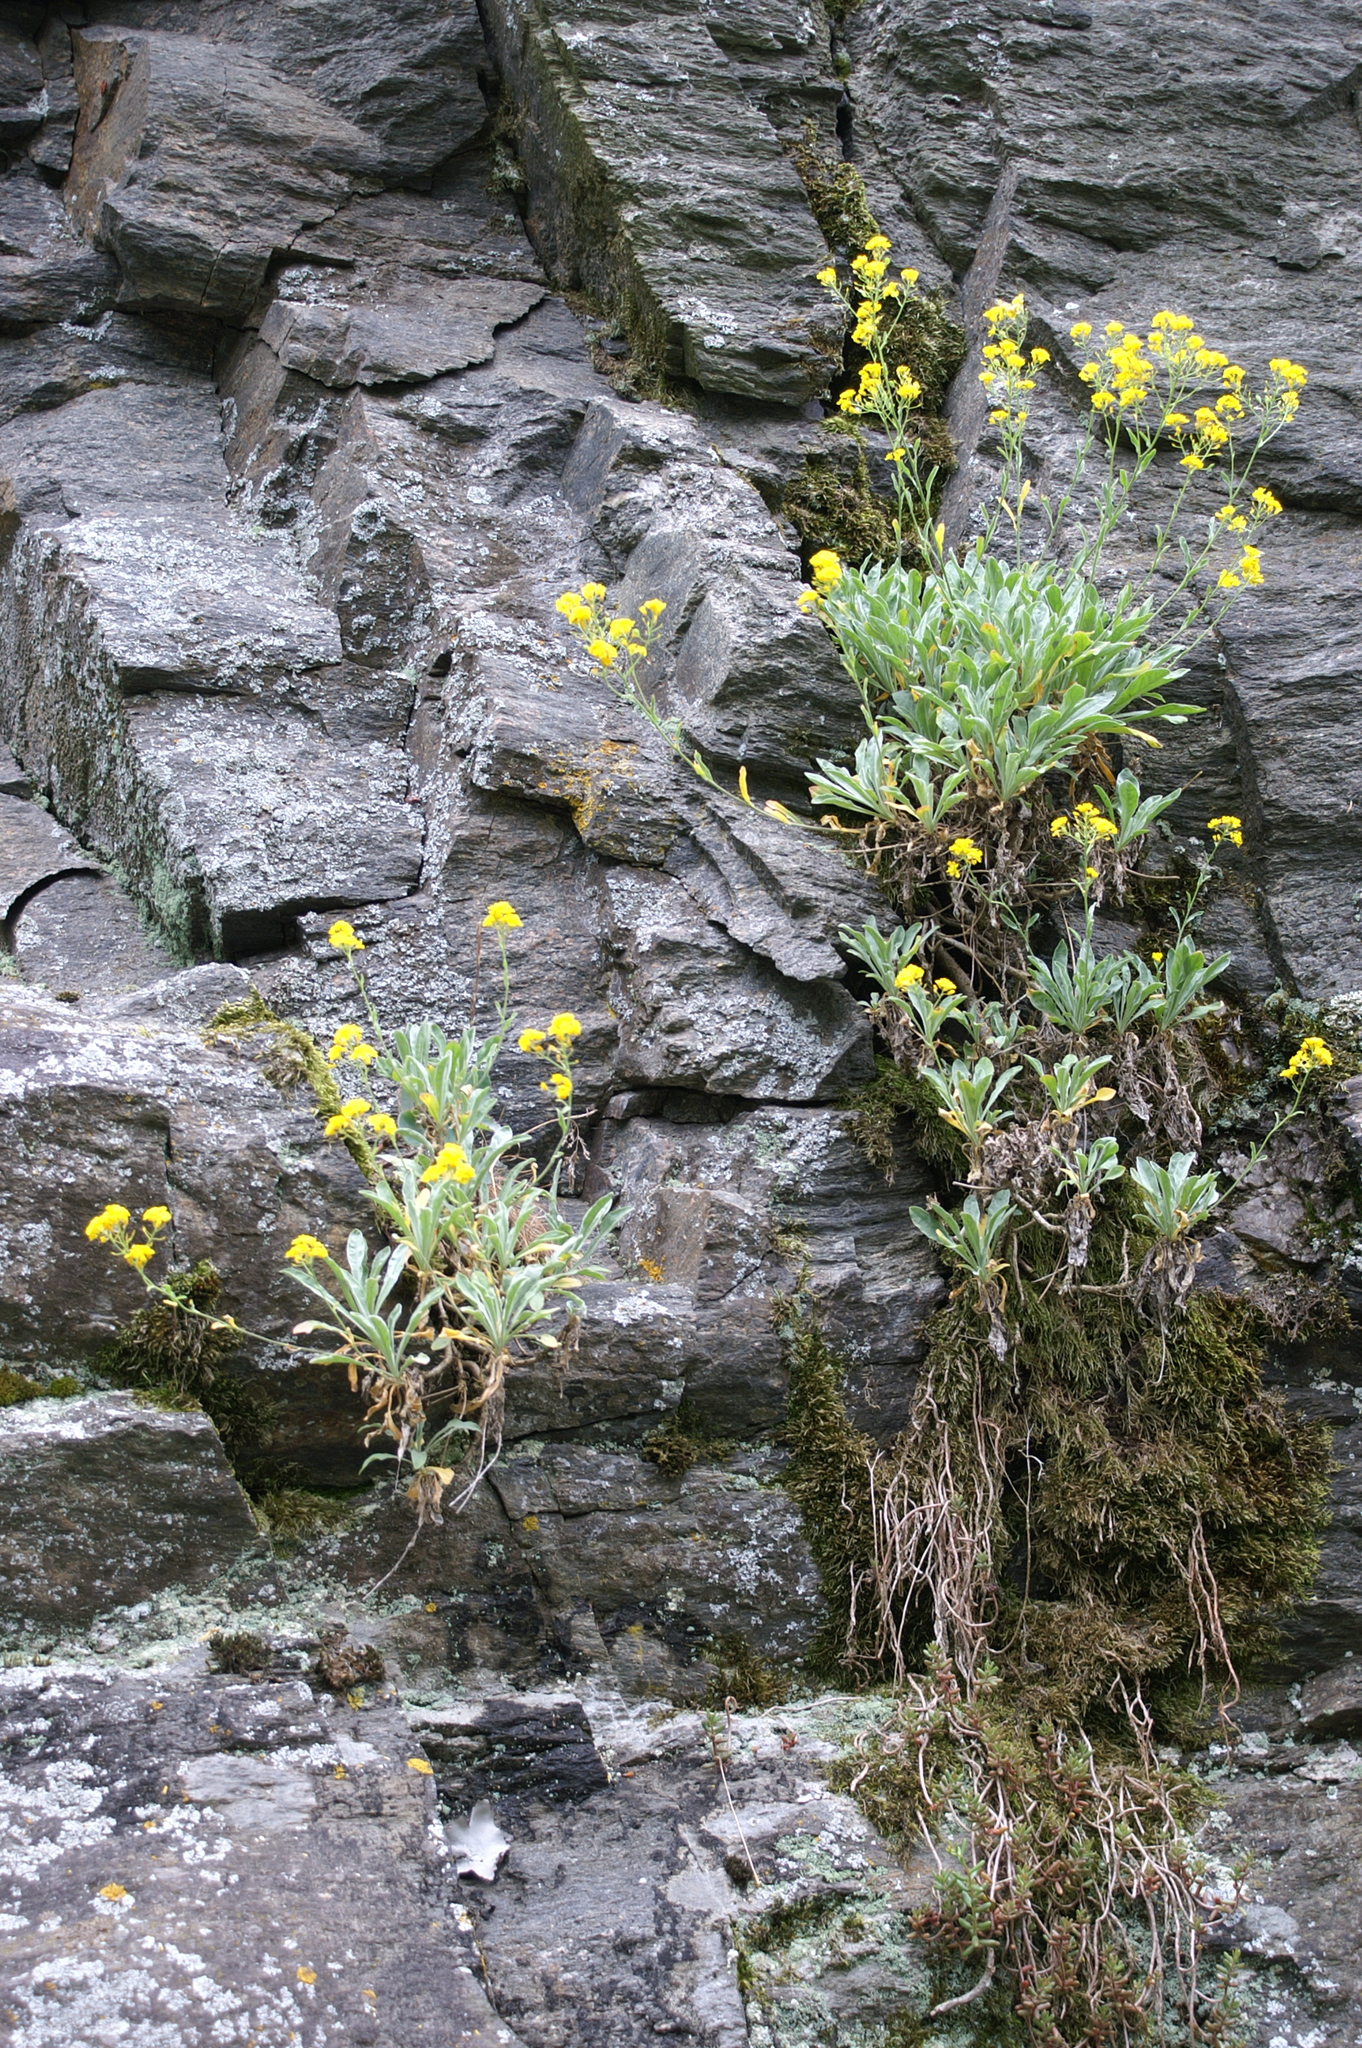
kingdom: Plantae
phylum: Tracheophyta
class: Magnoliopsida
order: Brassicales
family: Brassicaceae
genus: Aurinia
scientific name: Aurinia saxatilis
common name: Golden-tuft alyssum
